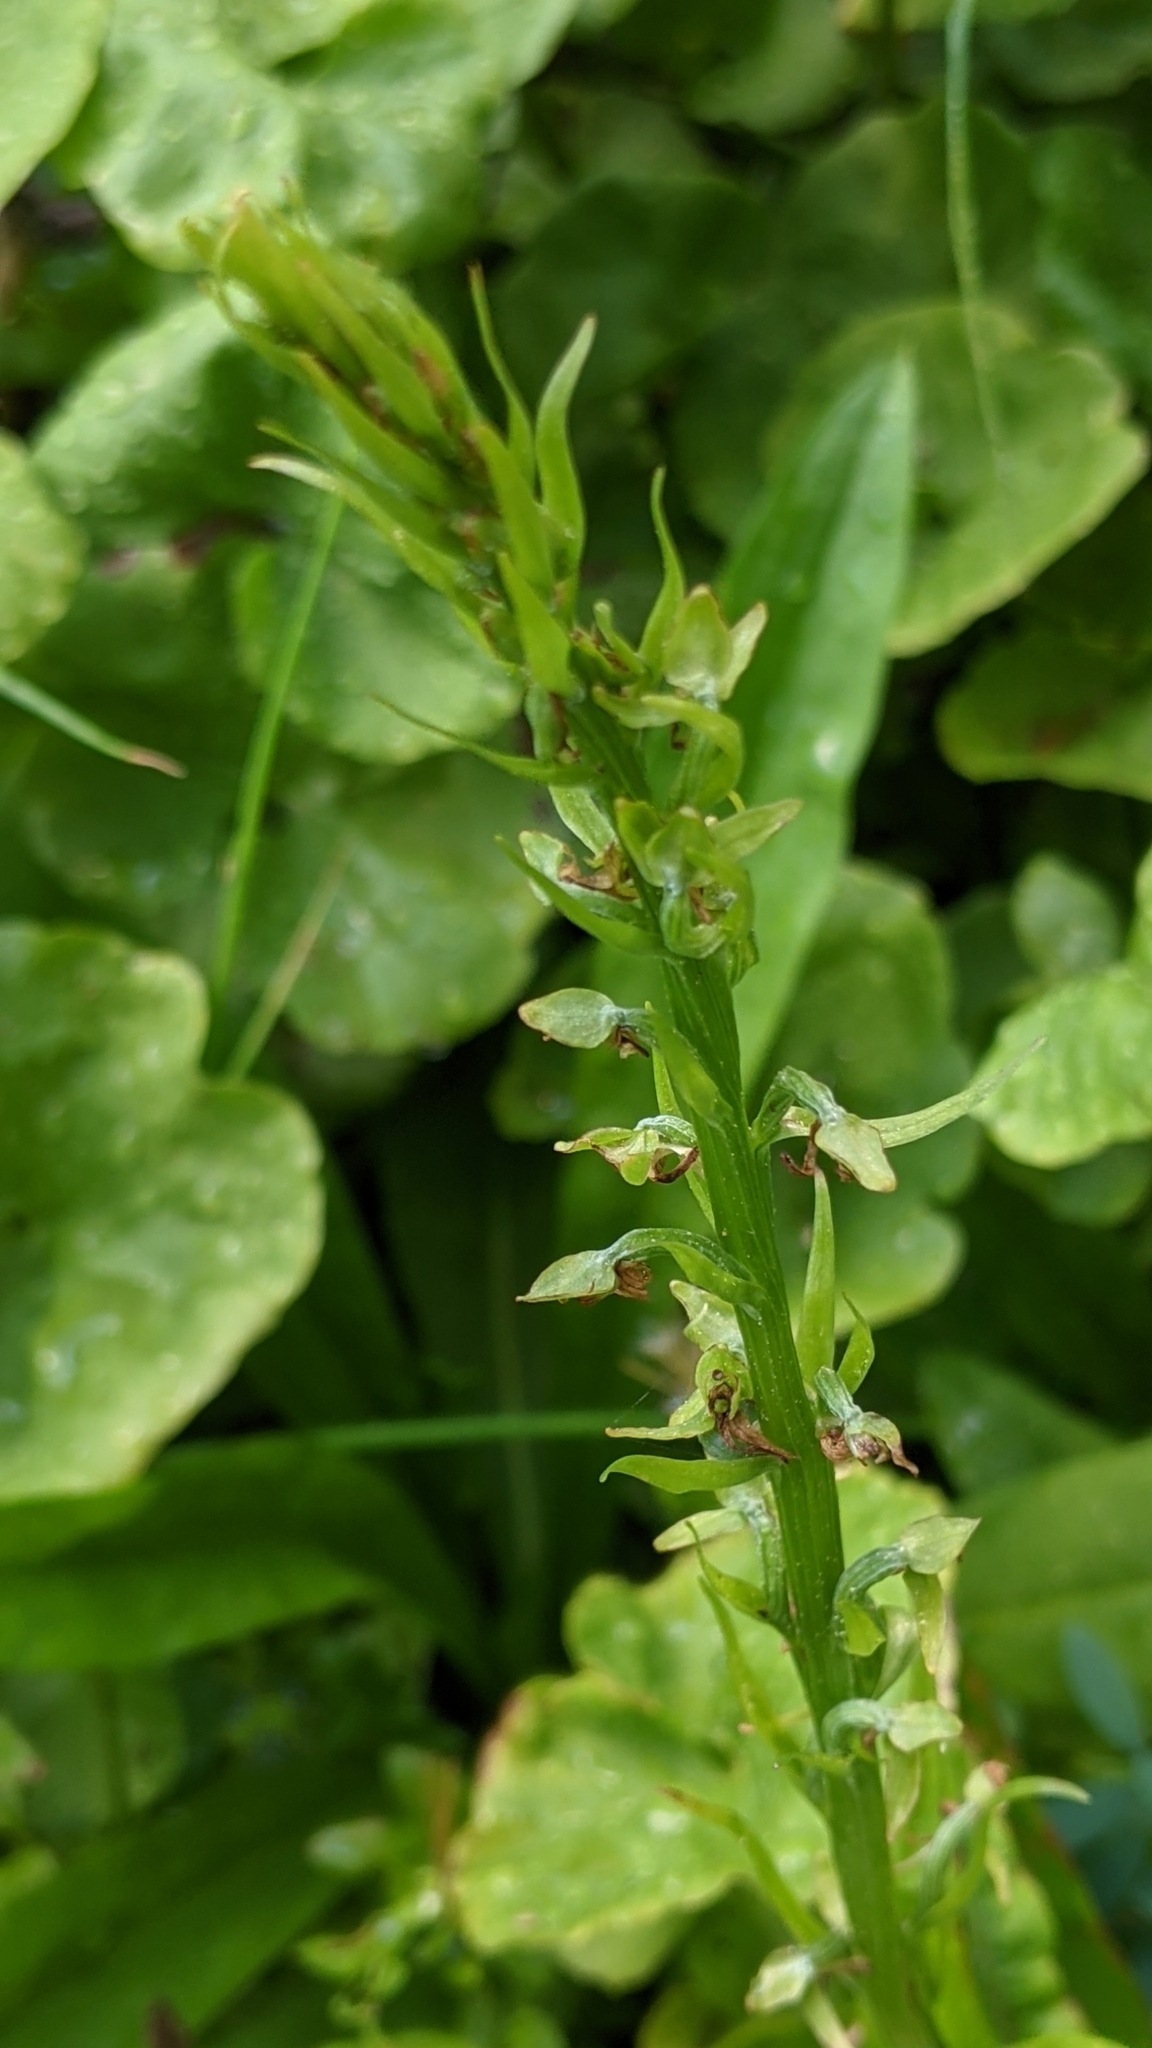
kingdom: Plantae
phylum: Tracheophyta
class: Liliopsida
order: Asparagales
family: Orchidaceae
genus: Platanthera
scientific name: Platanthera sparsiflora
